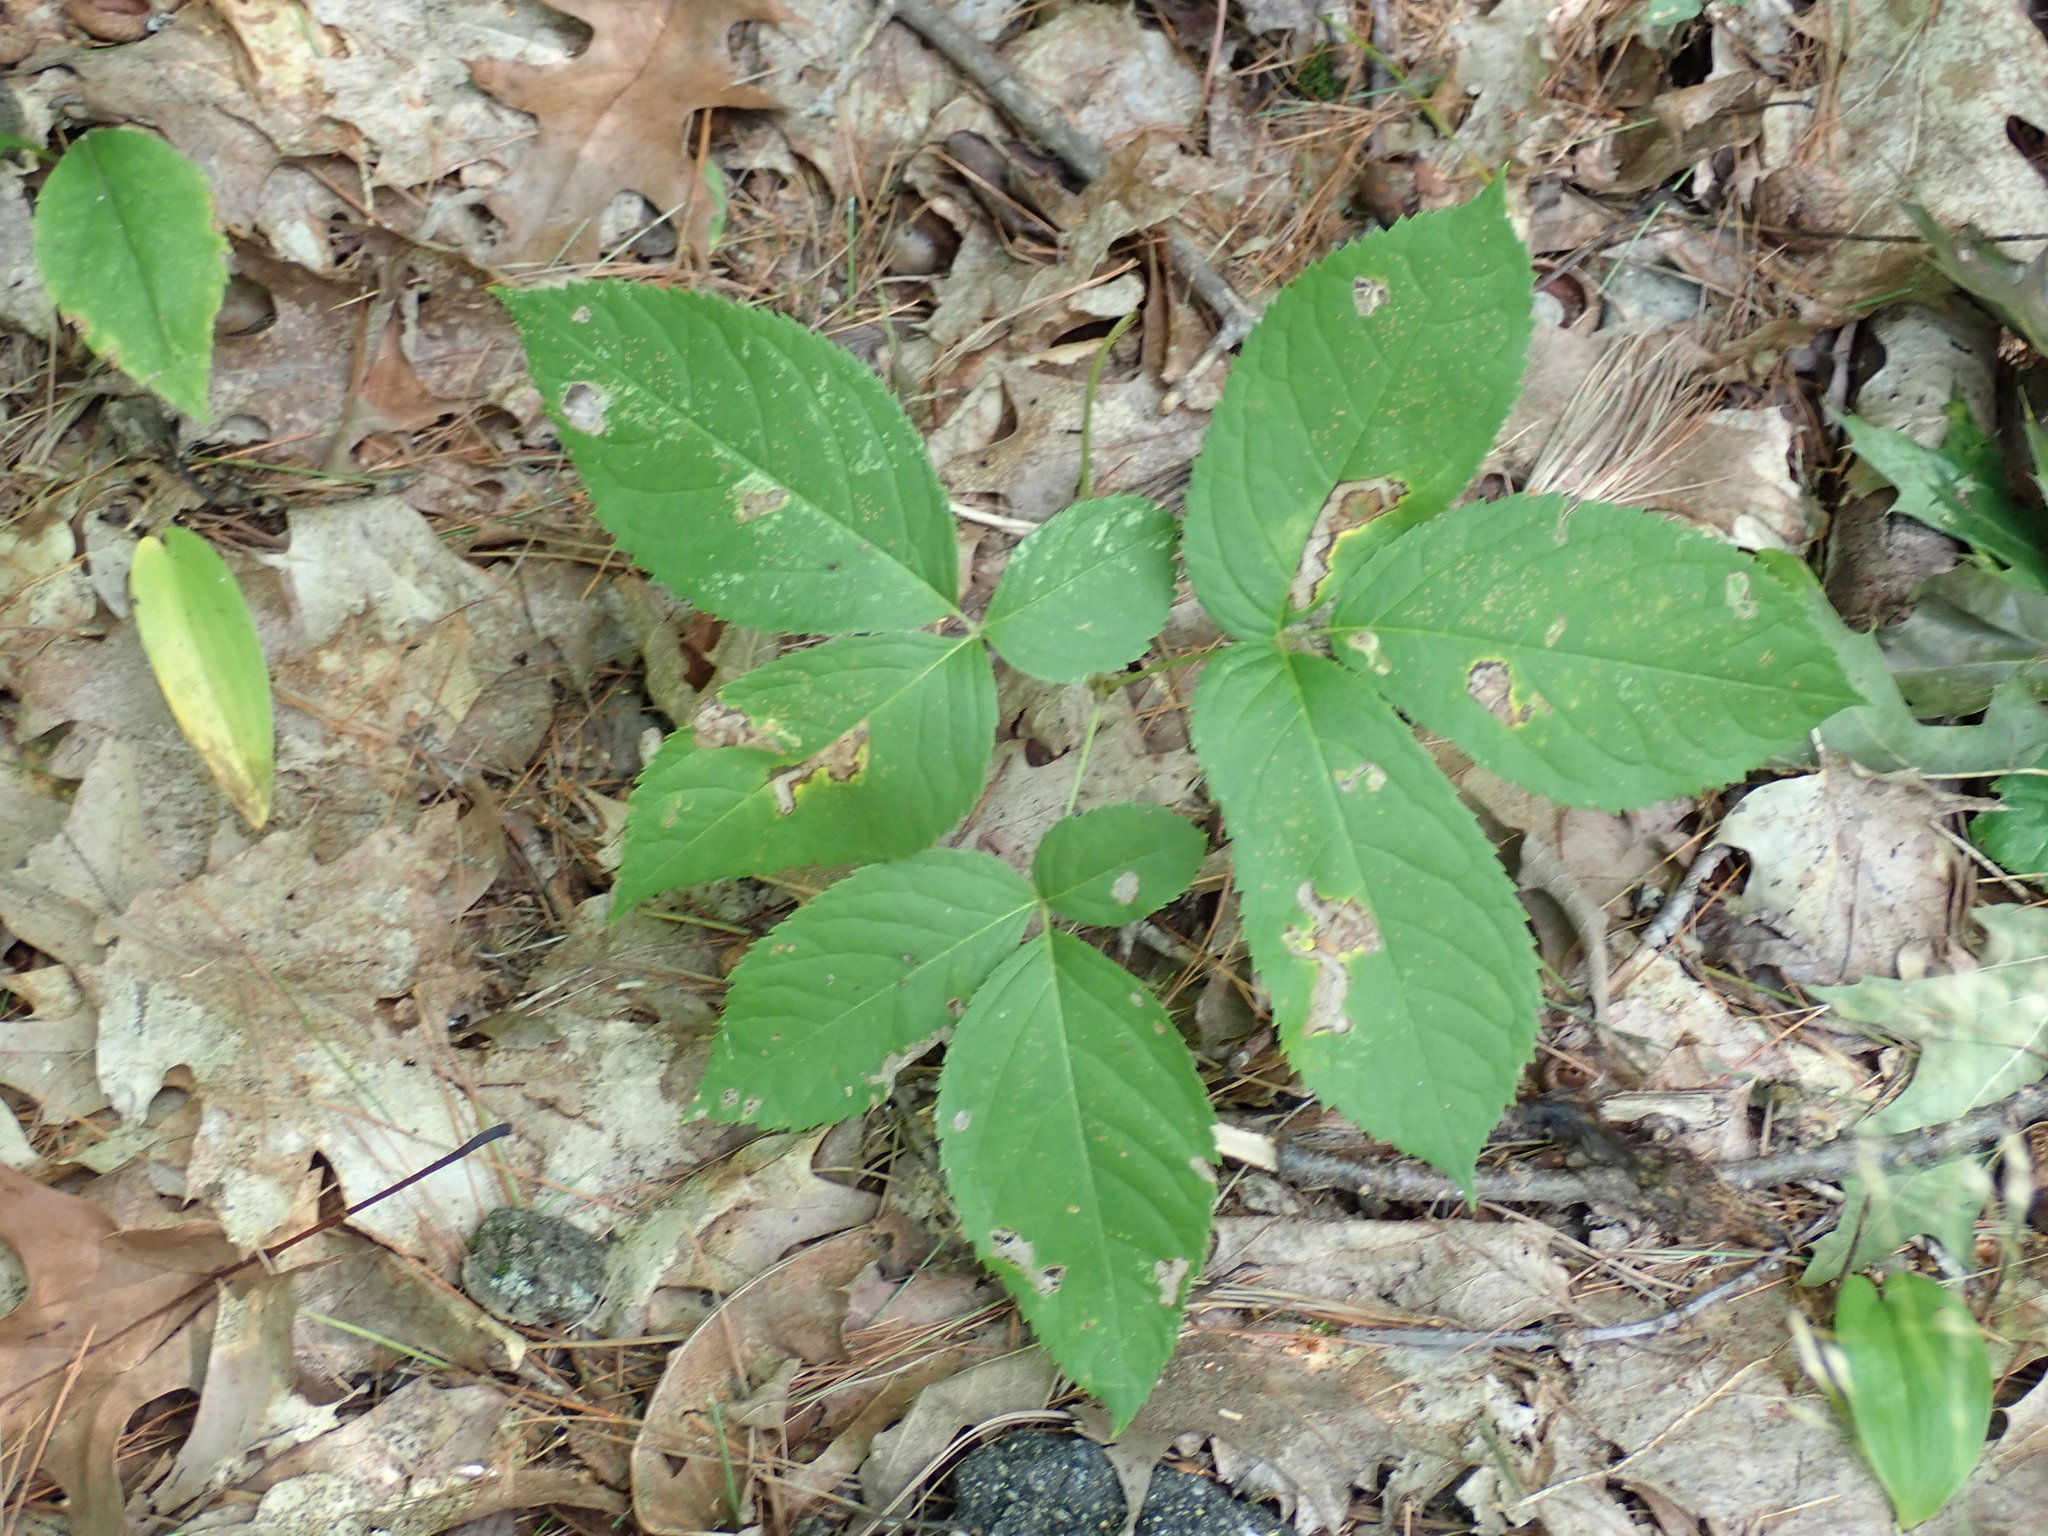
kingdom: Plantae
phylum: Tracheophyta
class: Magnoliopsida
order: Apiales
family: Araliaceae
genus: Aralia
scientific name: Aralia nudicaulis
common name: Wild sarsaparilla
